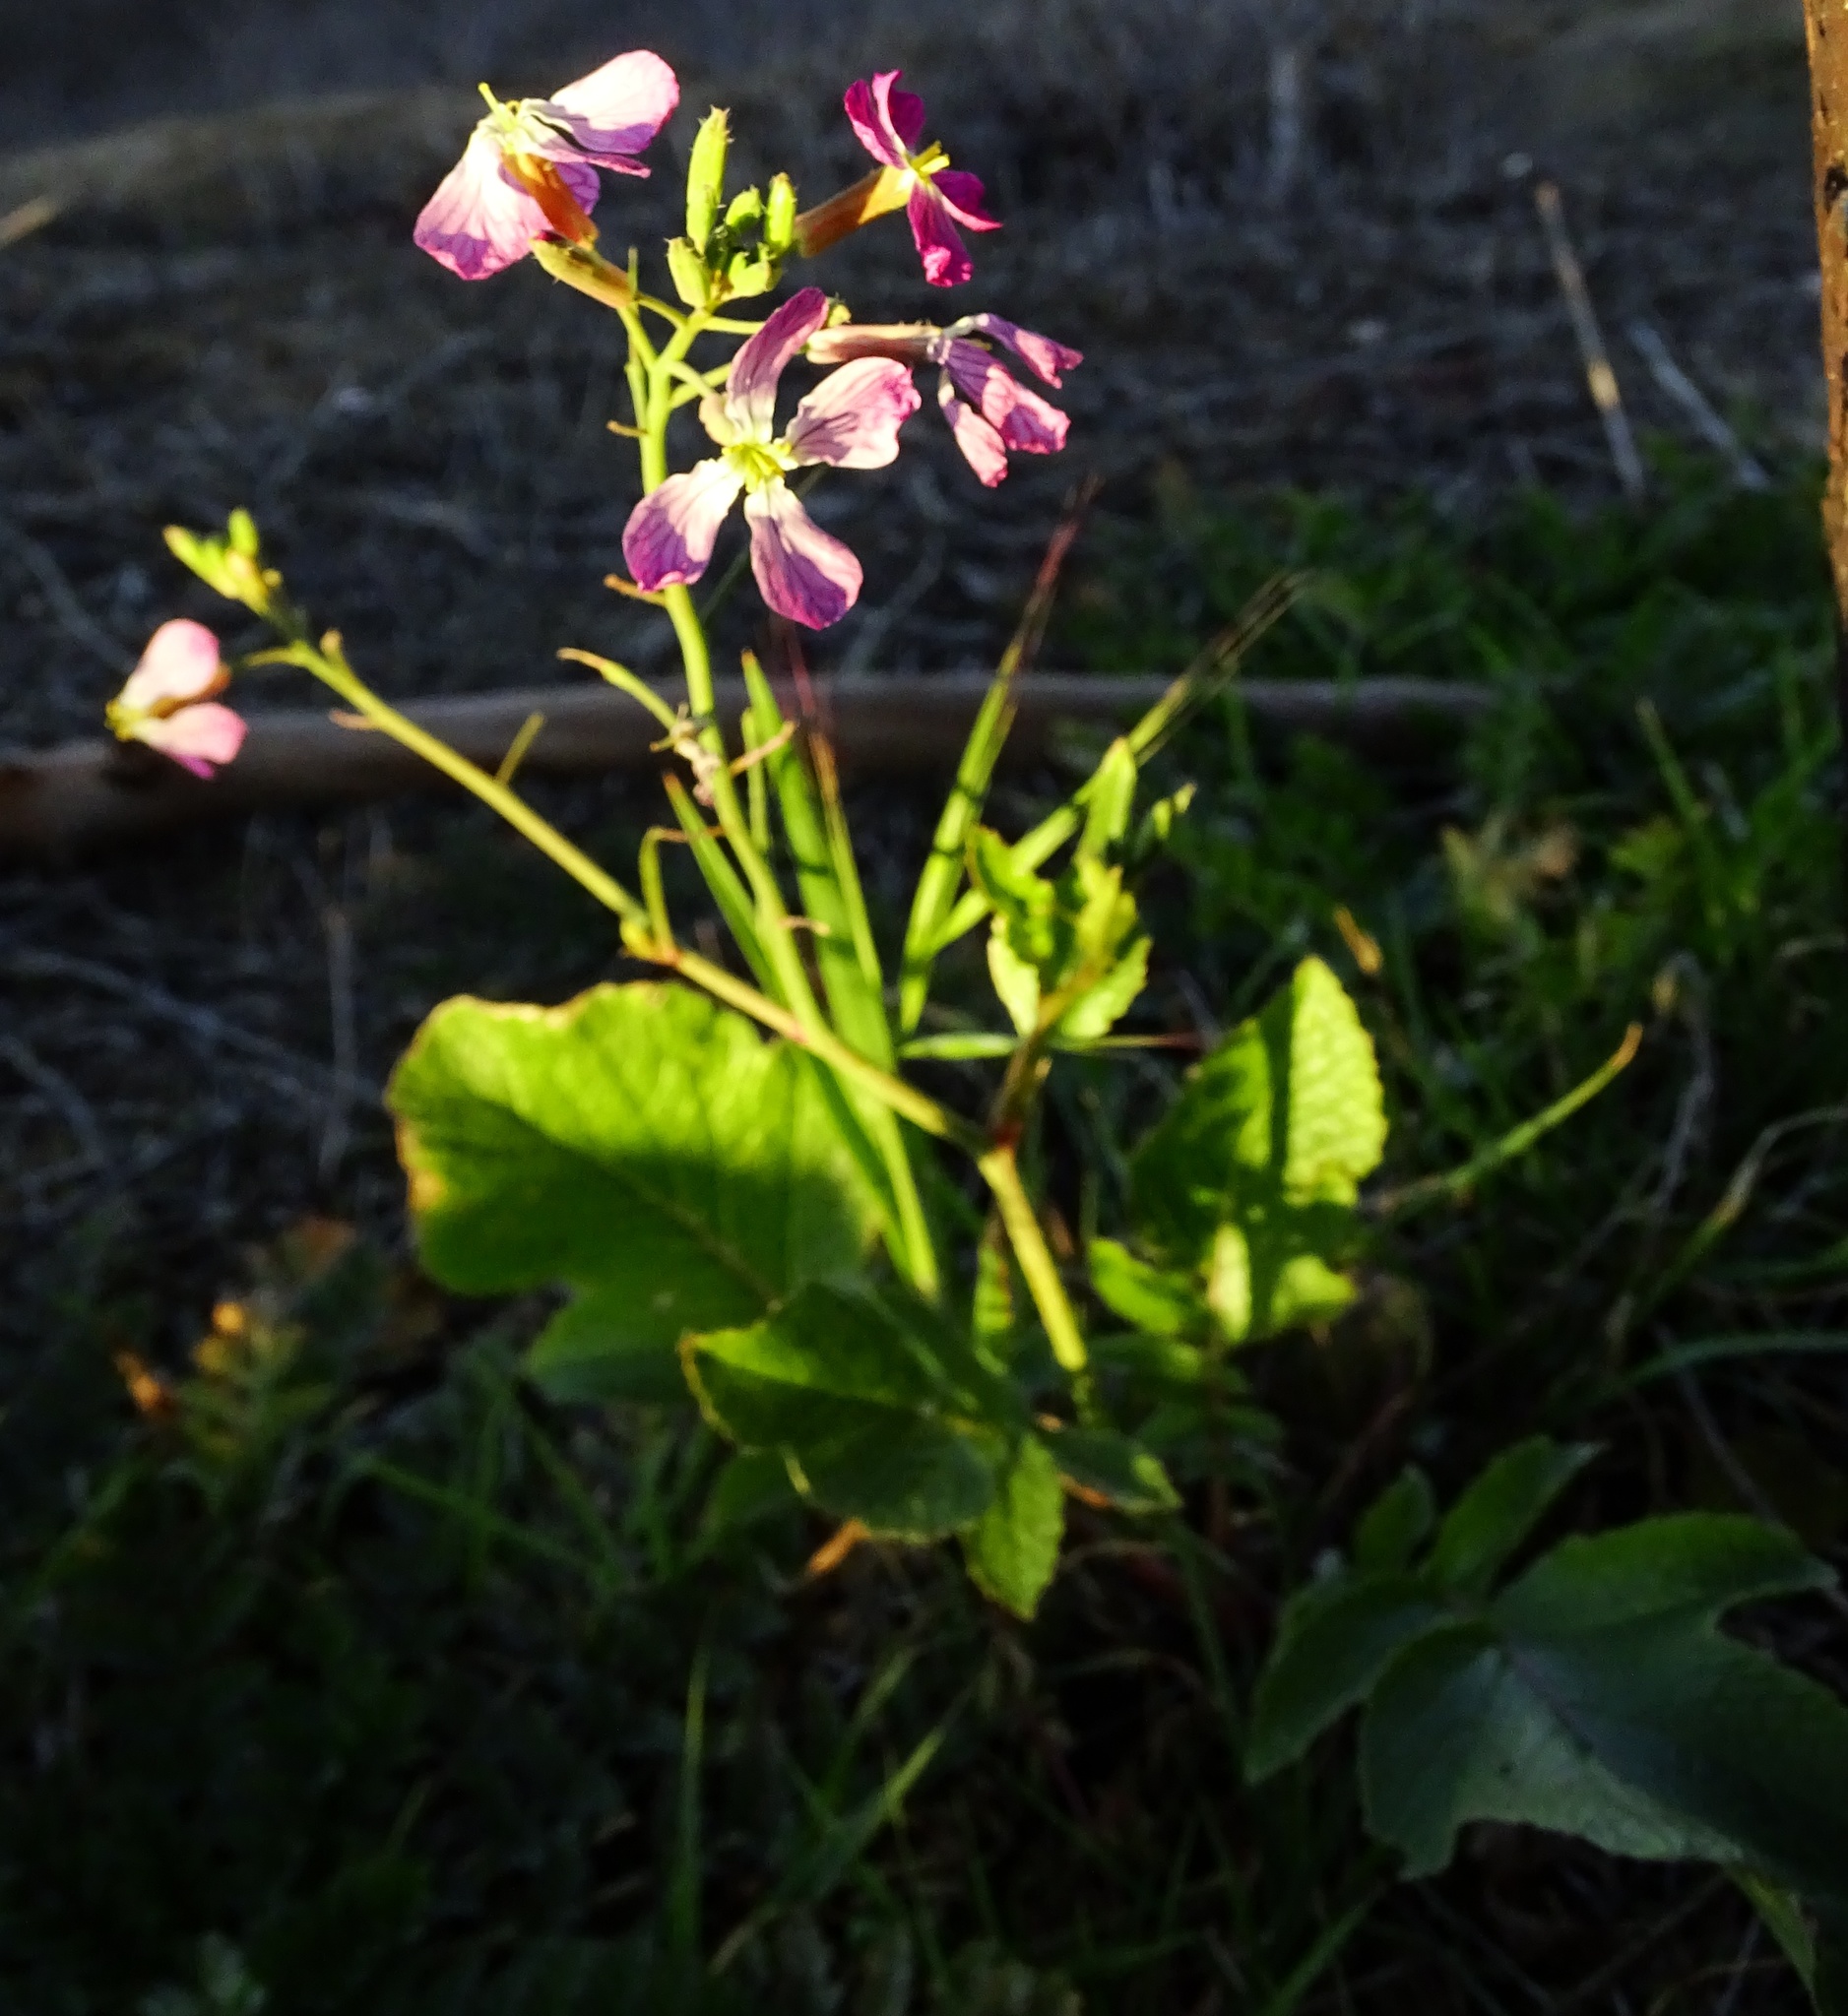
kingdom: Plantae
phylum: Tracheophyta
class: Magnoliopsida
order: Brassicales
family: Brassicaceae
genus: Raphanus
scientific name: Raphanus sativus
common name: Cultivated radish
